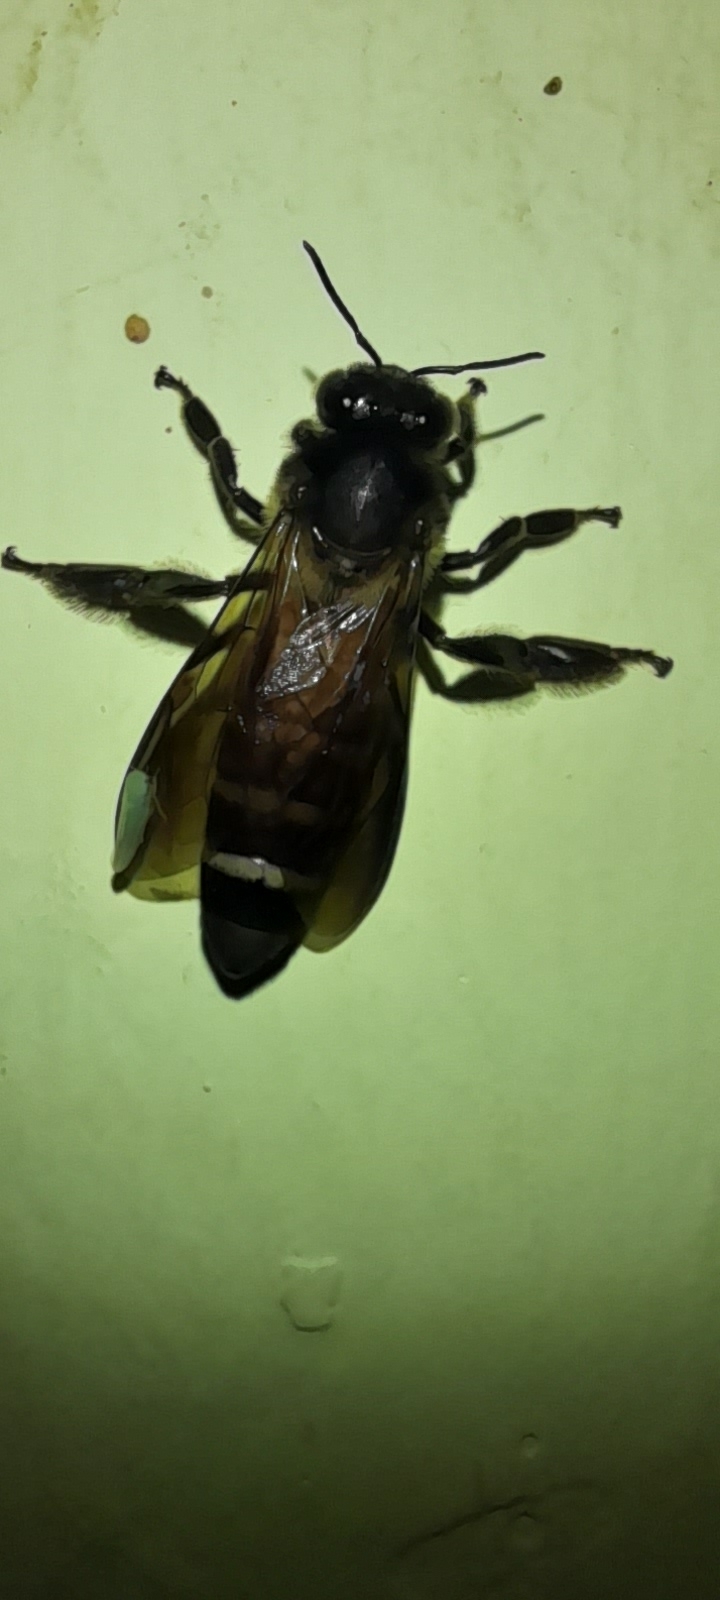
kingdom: Animalia
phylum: Arthropoda
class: Insecta
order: Hymenoptera
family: Apidae
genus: Apis
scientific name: Apis dorsata
